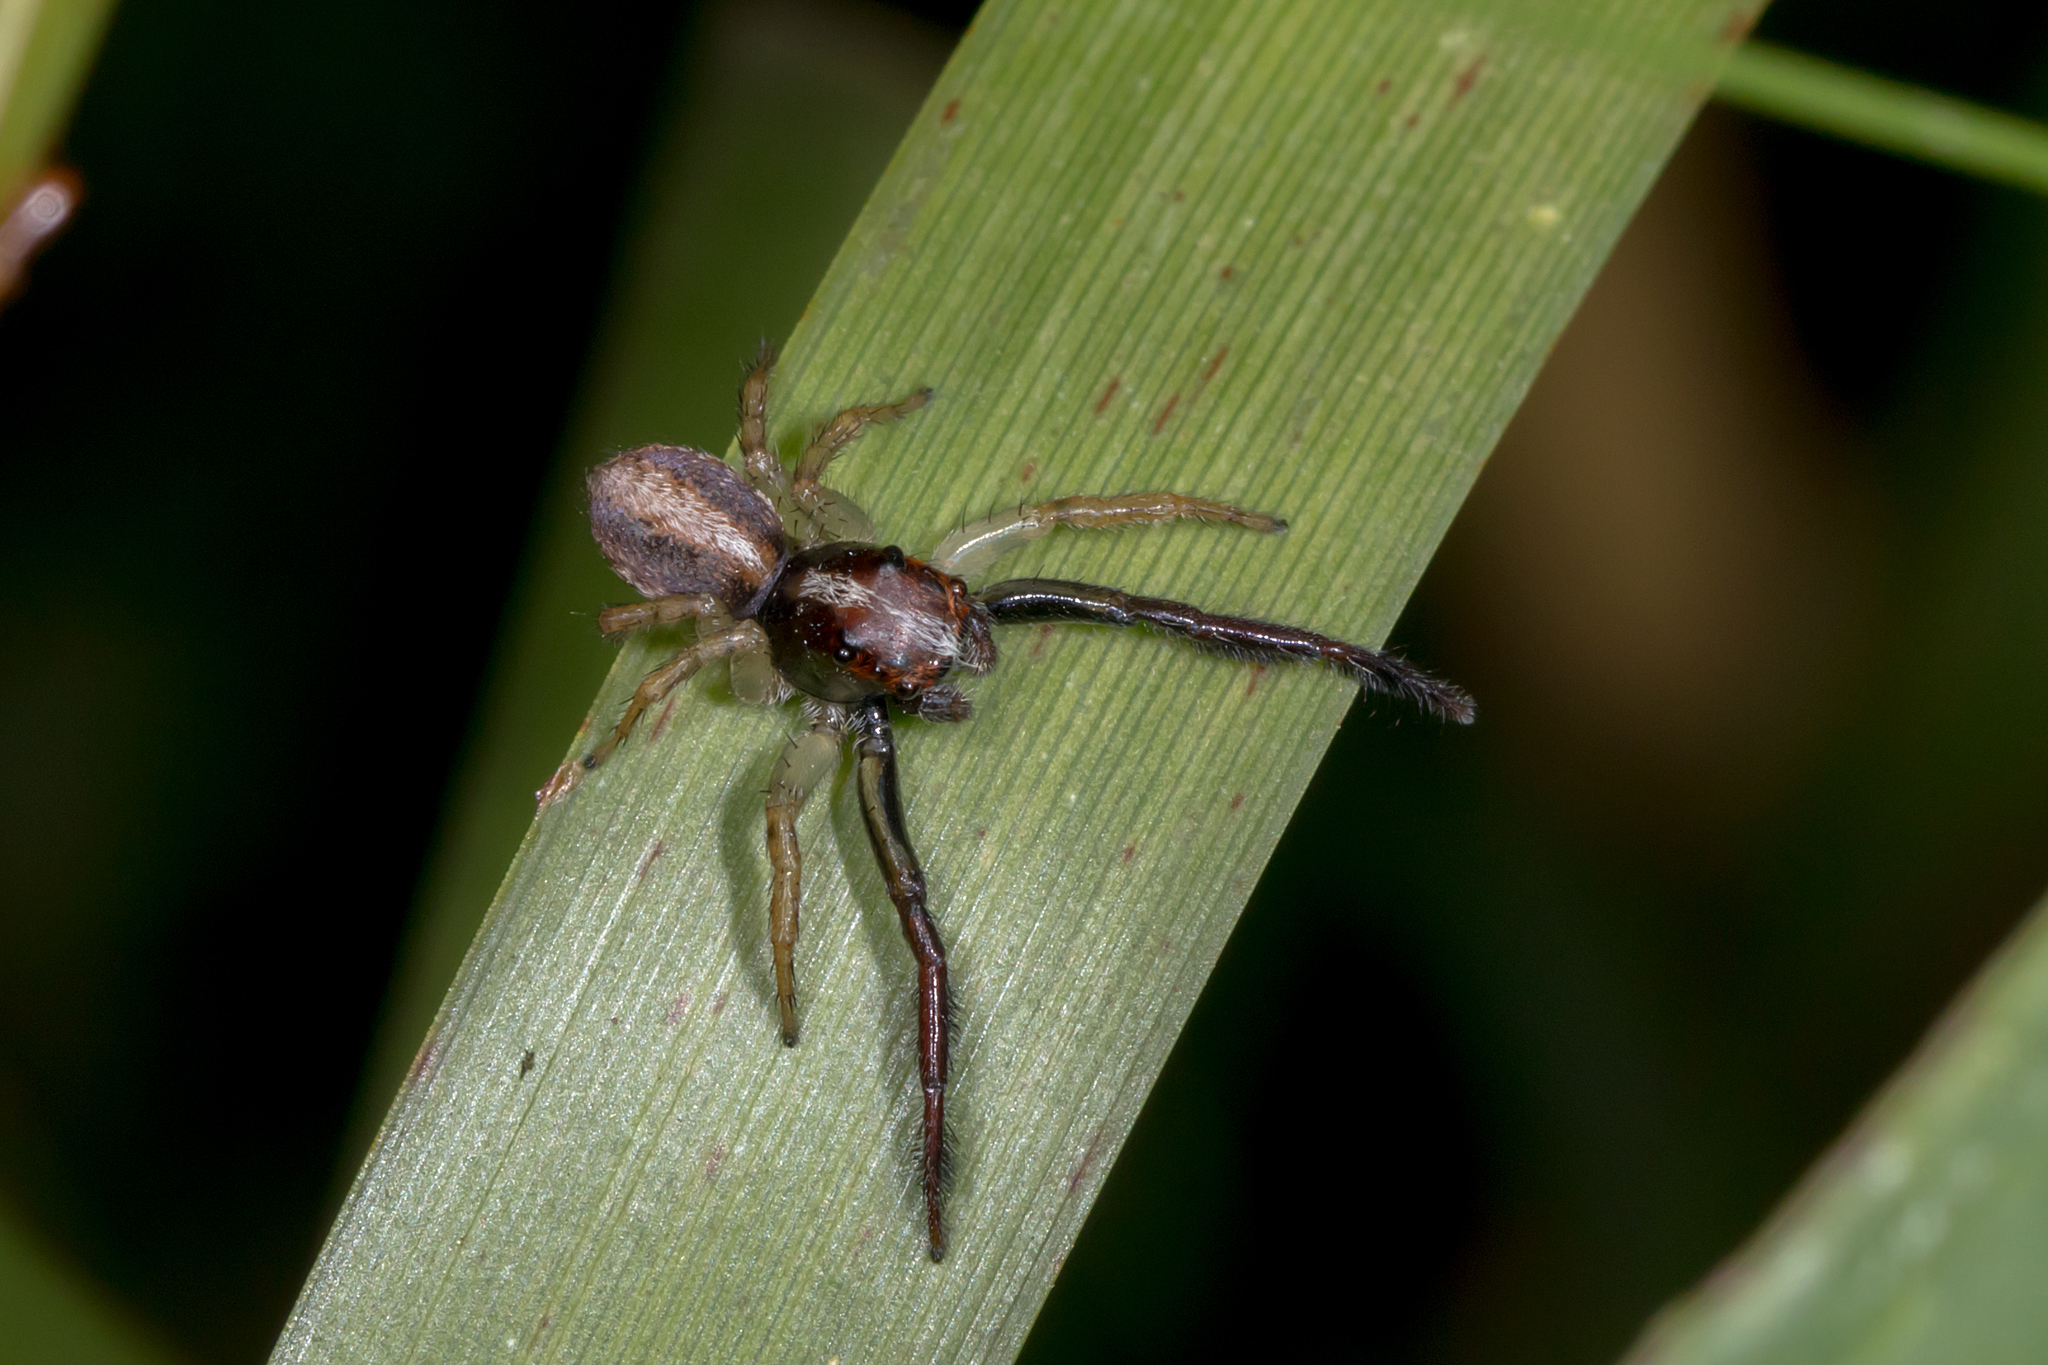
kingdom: Animalia
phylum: Arthropoda
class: Arachnida
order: Araneae
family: Salticidae
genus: Prostheclina
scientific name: Prostheclina amplior
